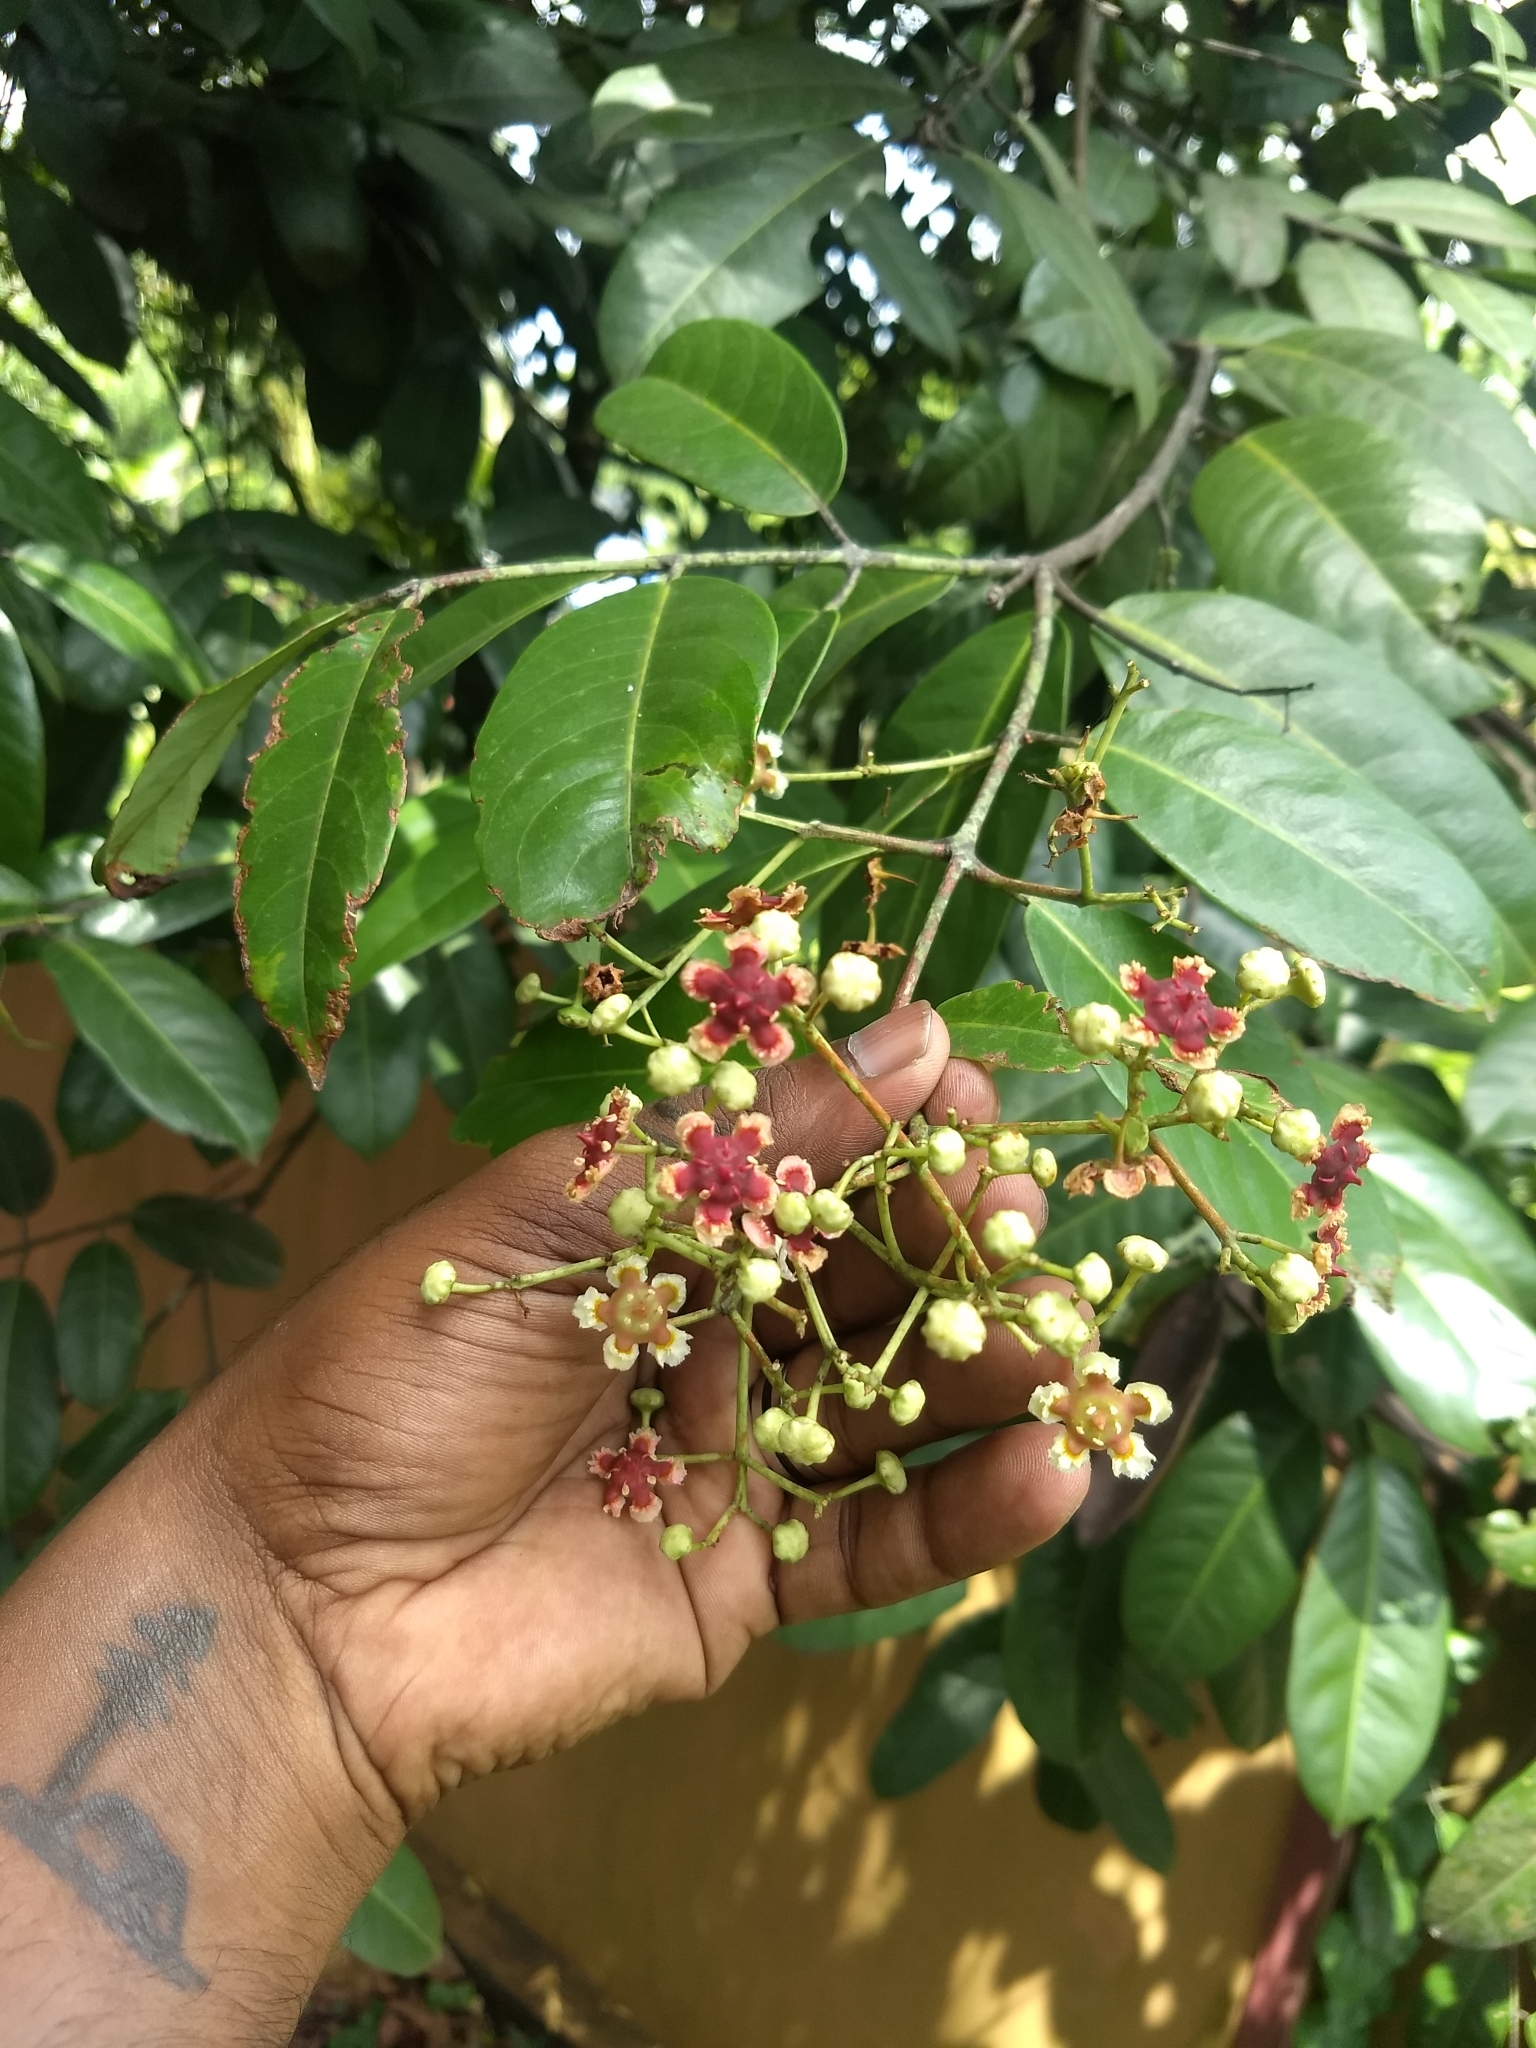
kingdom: Plantae
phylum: Tracheophyta
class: Magnoliopsida
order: Celastrales
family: Celastraceae
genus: Lophopetalum
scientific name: Lophopetalum wightianum
